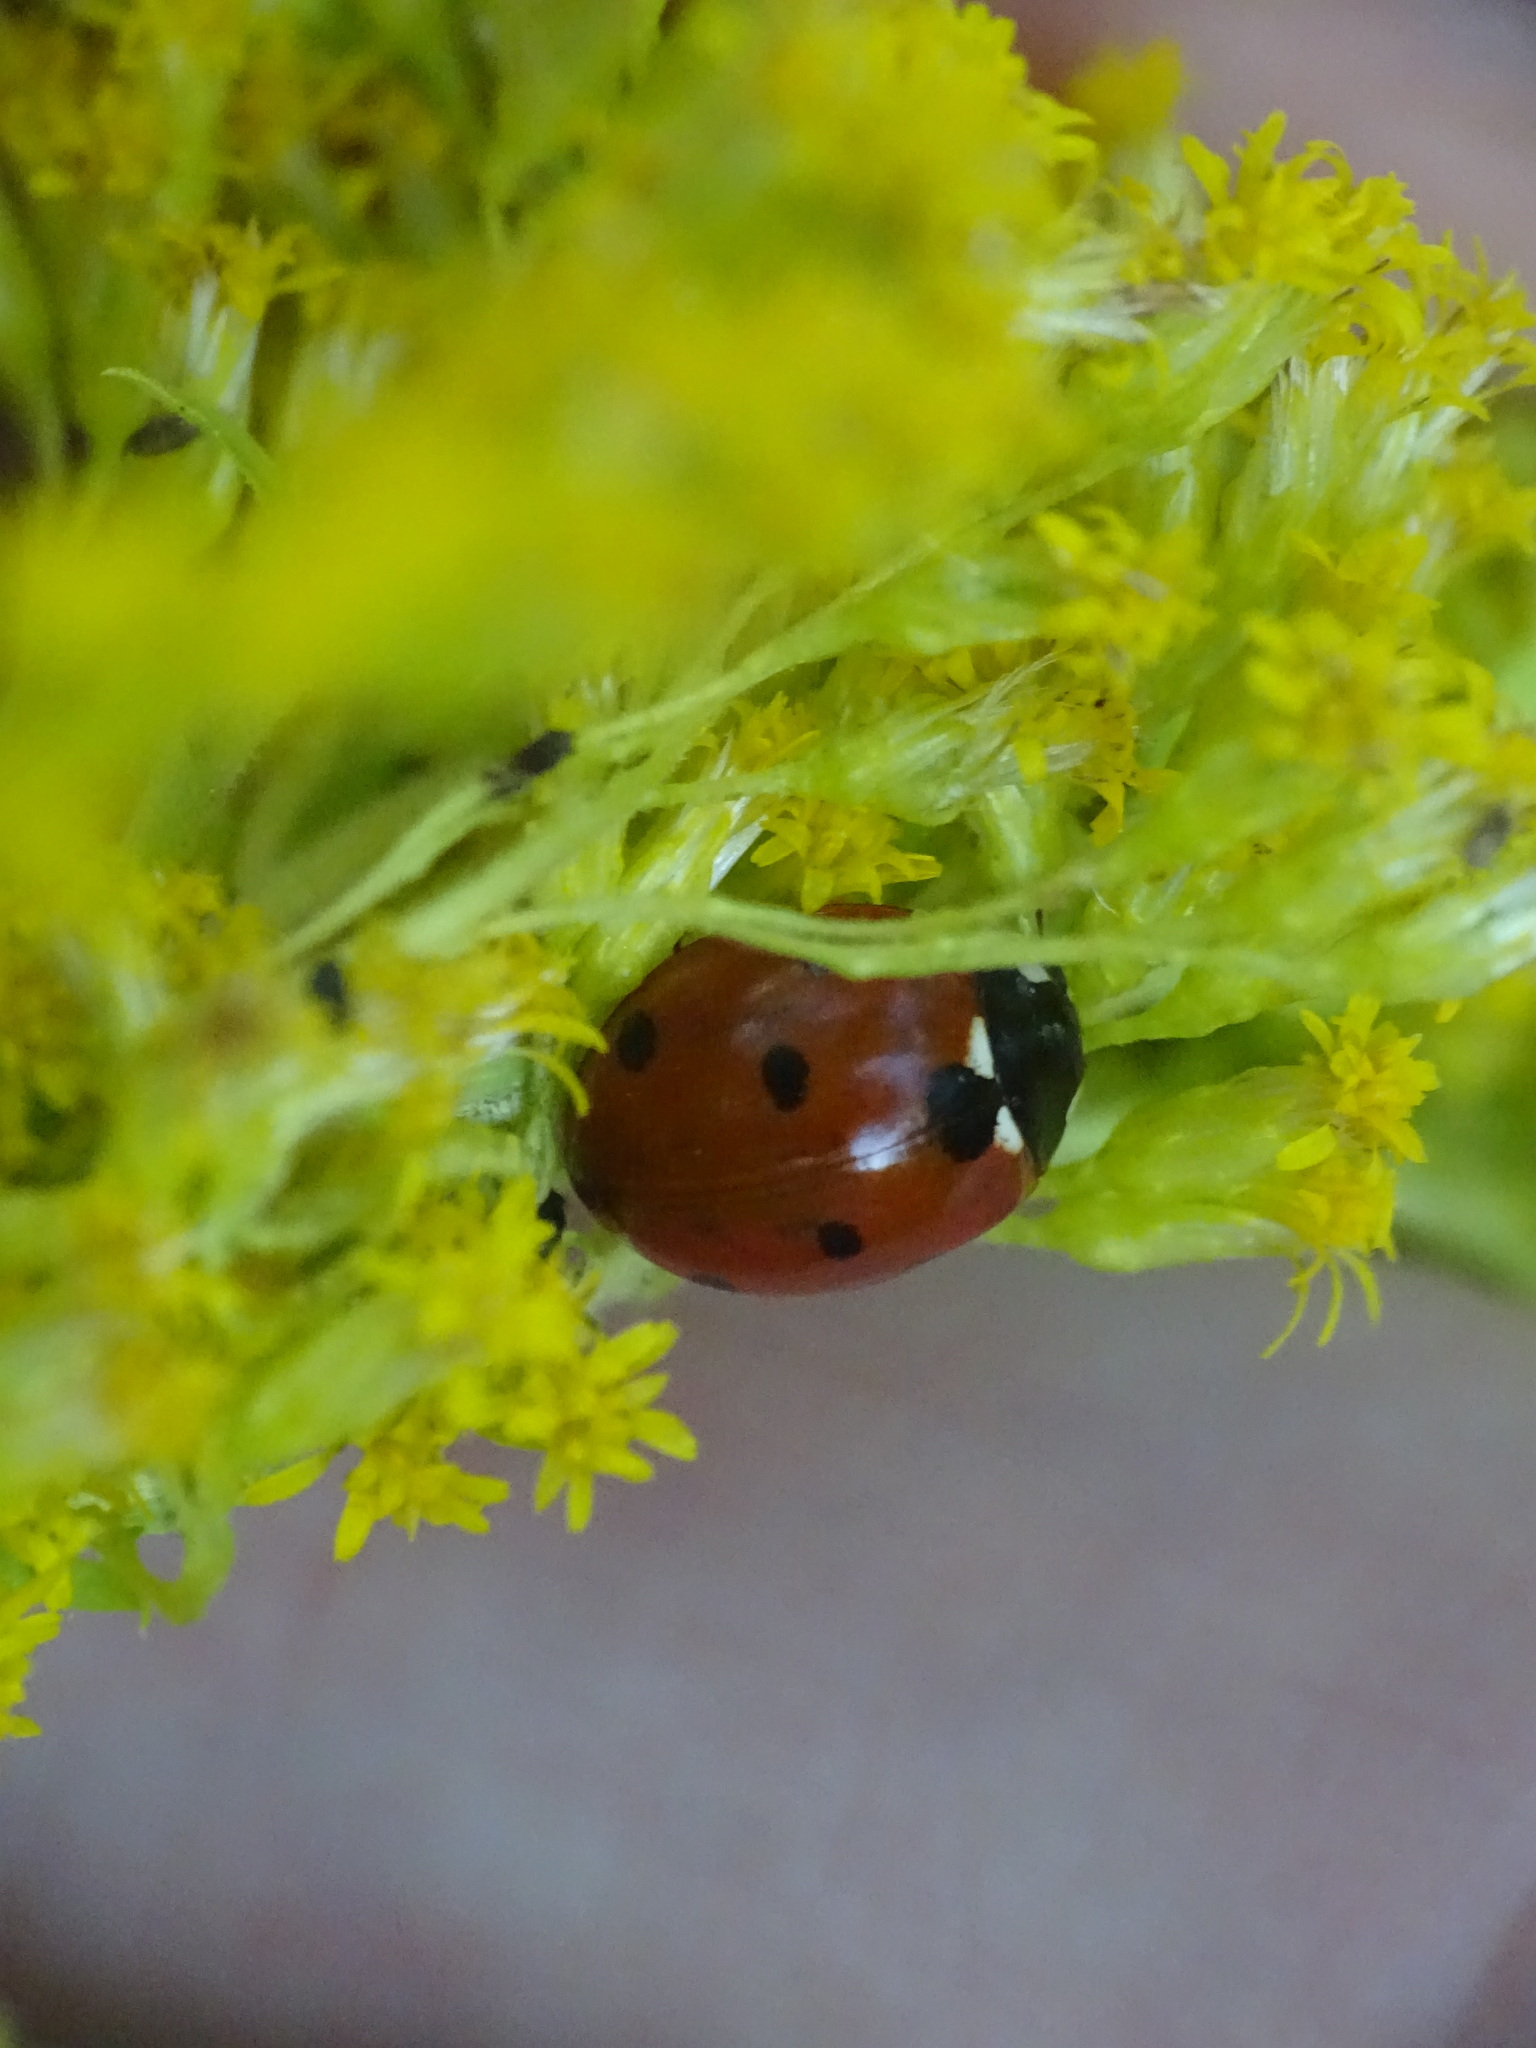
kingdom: Animalia
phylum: Arthropoda
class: Insecta
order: Coleoptera
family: Coccinellidae
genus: Coccinella
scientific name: Coccinella septempunctata
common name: Sevenspotted lady beetle
